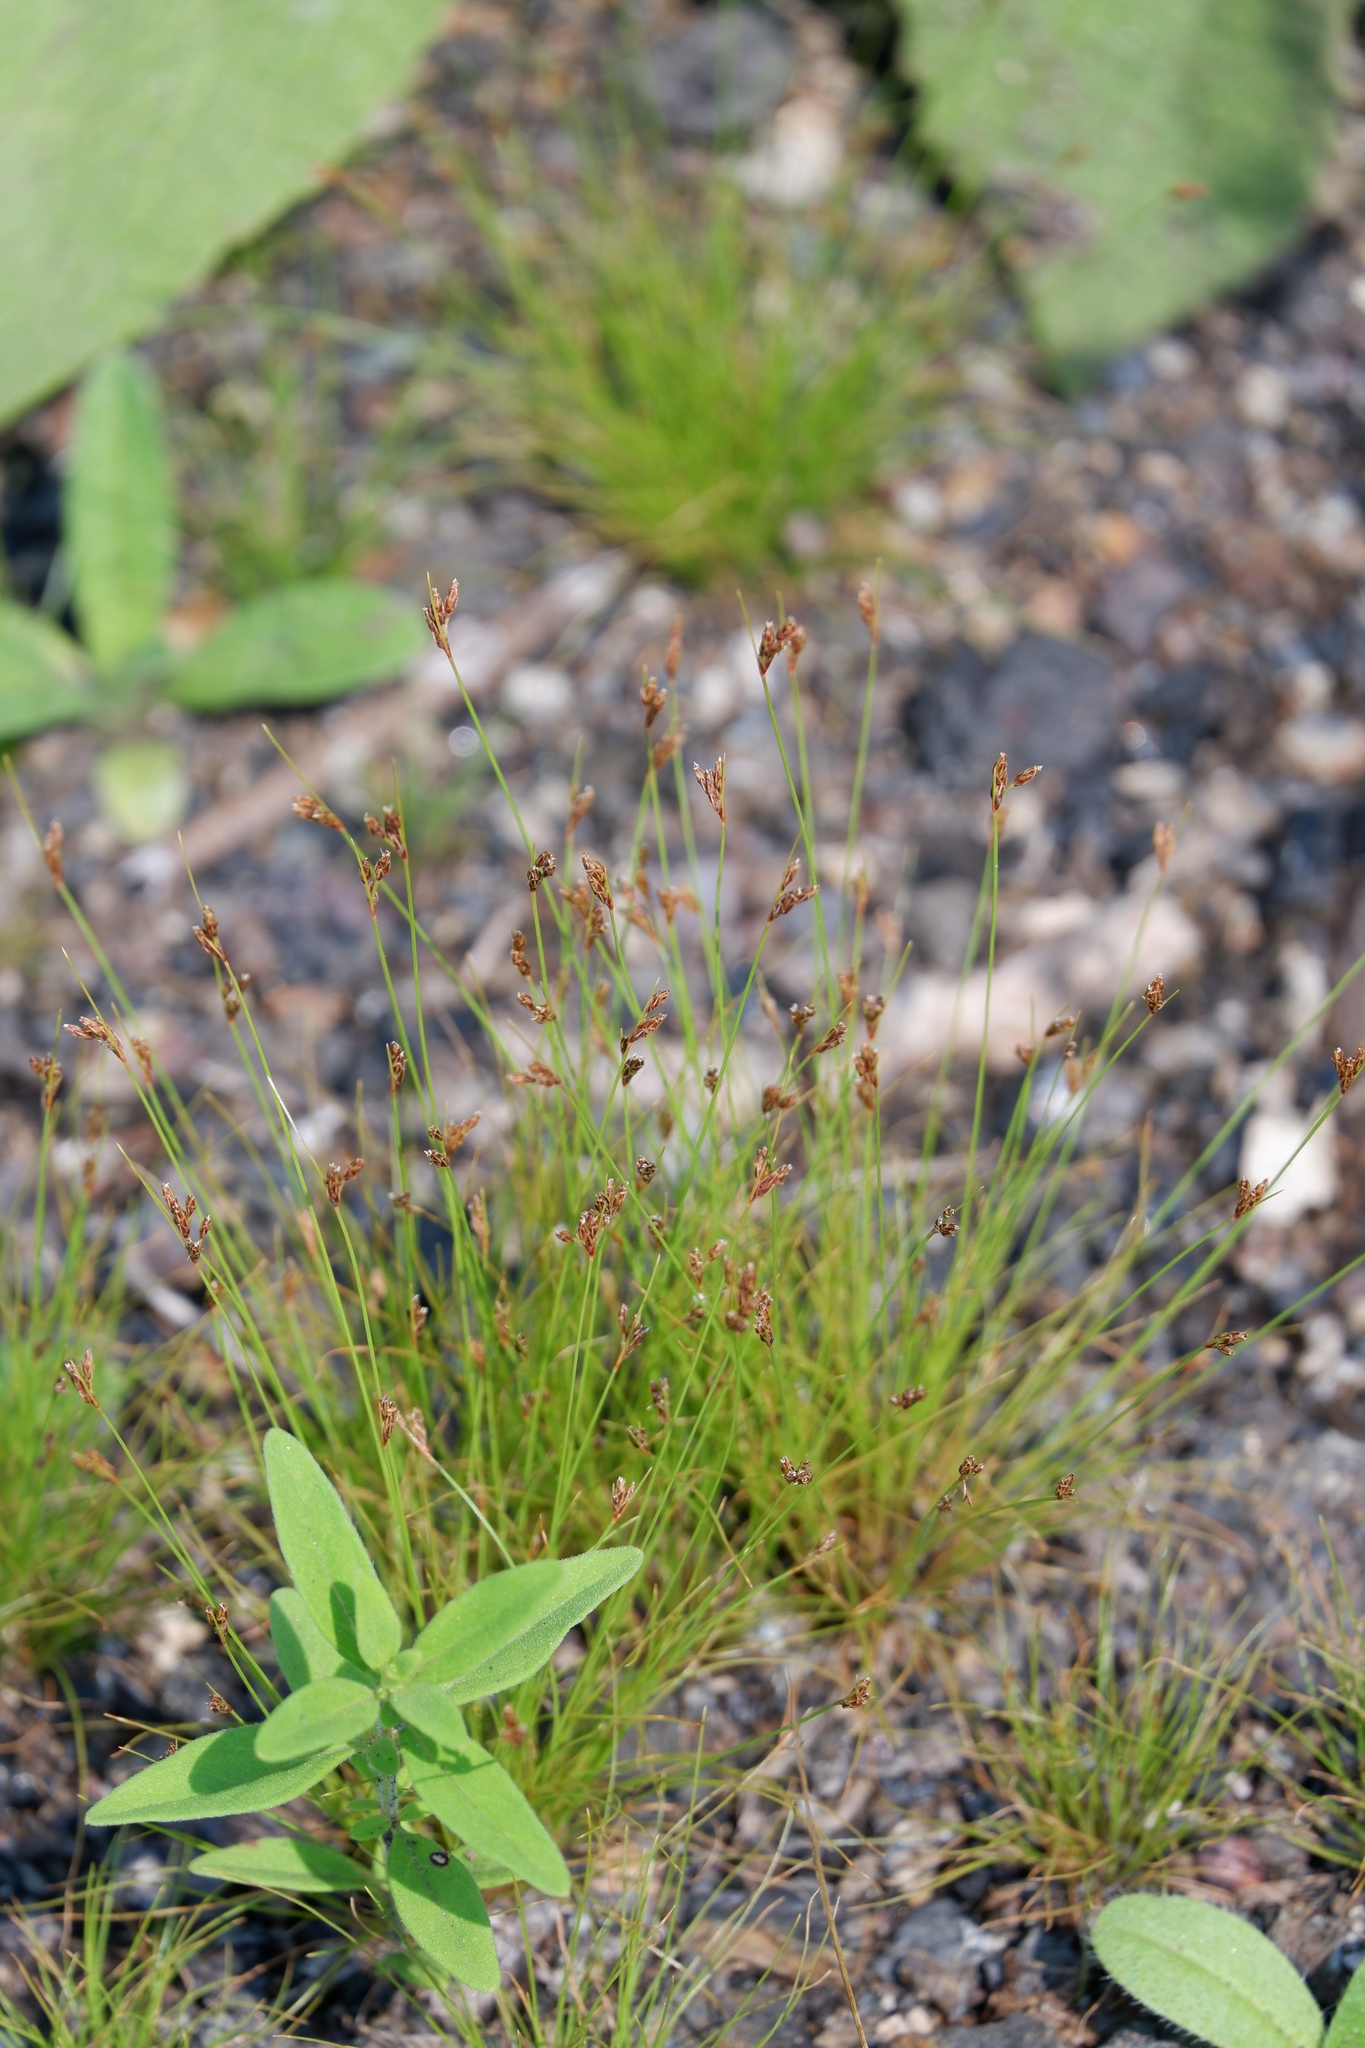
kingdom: Plantae
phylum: Tracheophyta
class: Liliopsida
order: Poales
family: Cyperaceae
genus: Bulbostylis
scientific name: Bulbostylis capillaris
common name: Densetuft hairsedge
